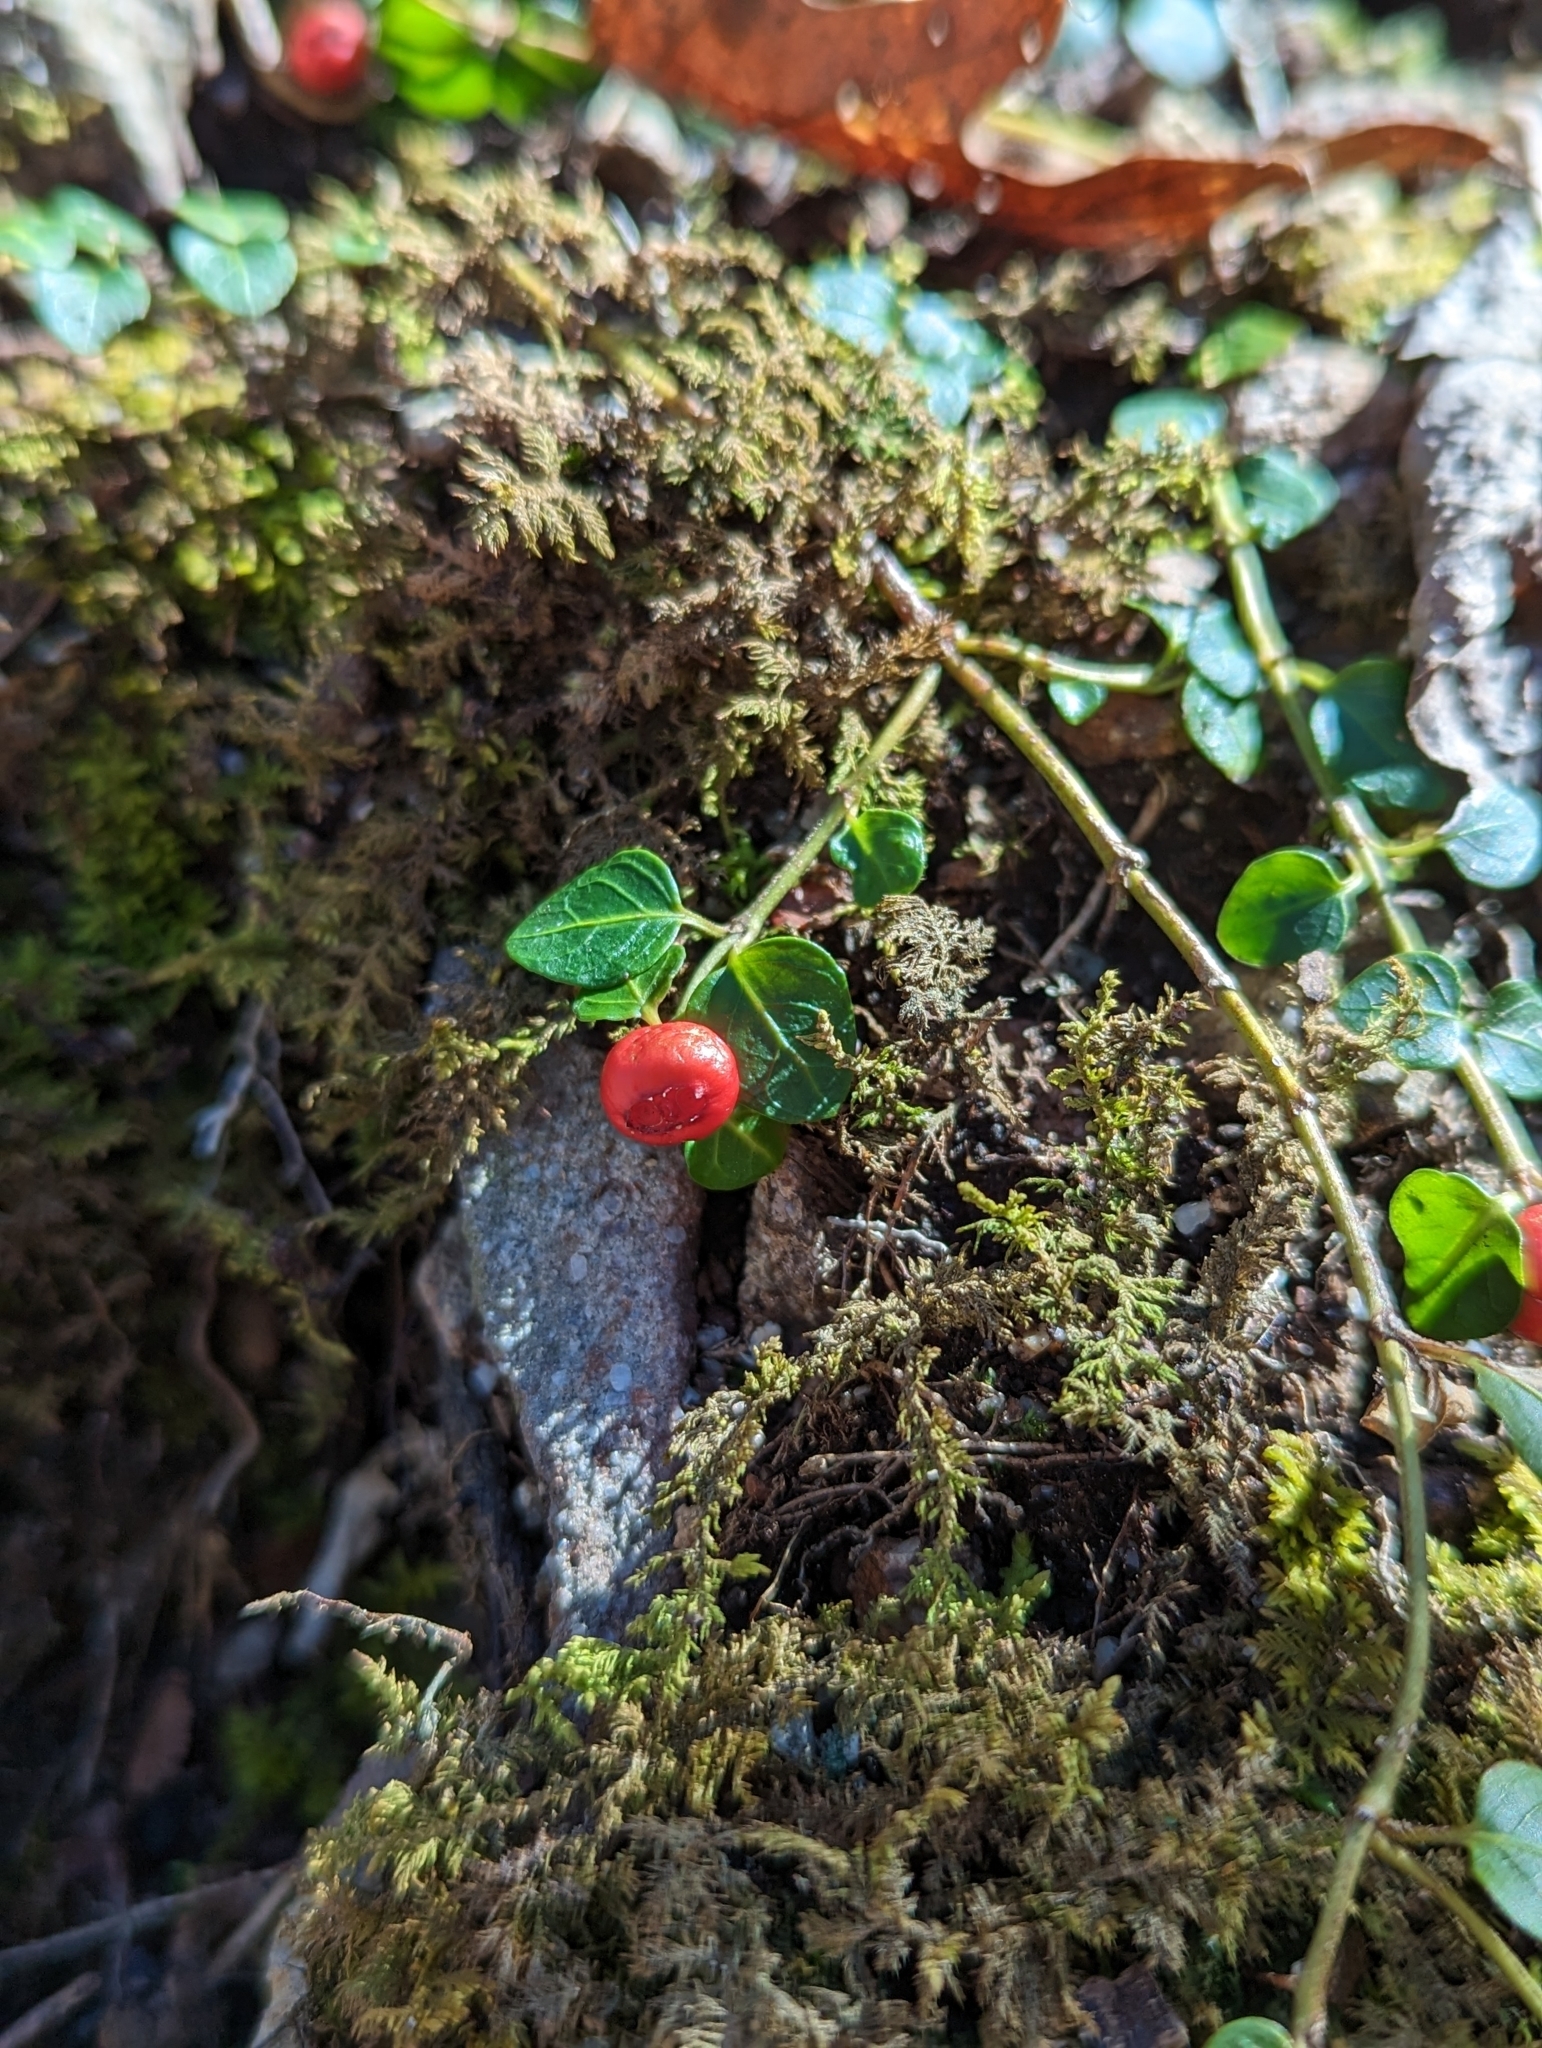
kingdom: Plantae
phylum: Tracheophyta
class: Magnoliopsida
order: Gentianales
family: Rubiaceae
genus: Mitchella
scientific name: Mitchella repens
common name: Partridge-berry
